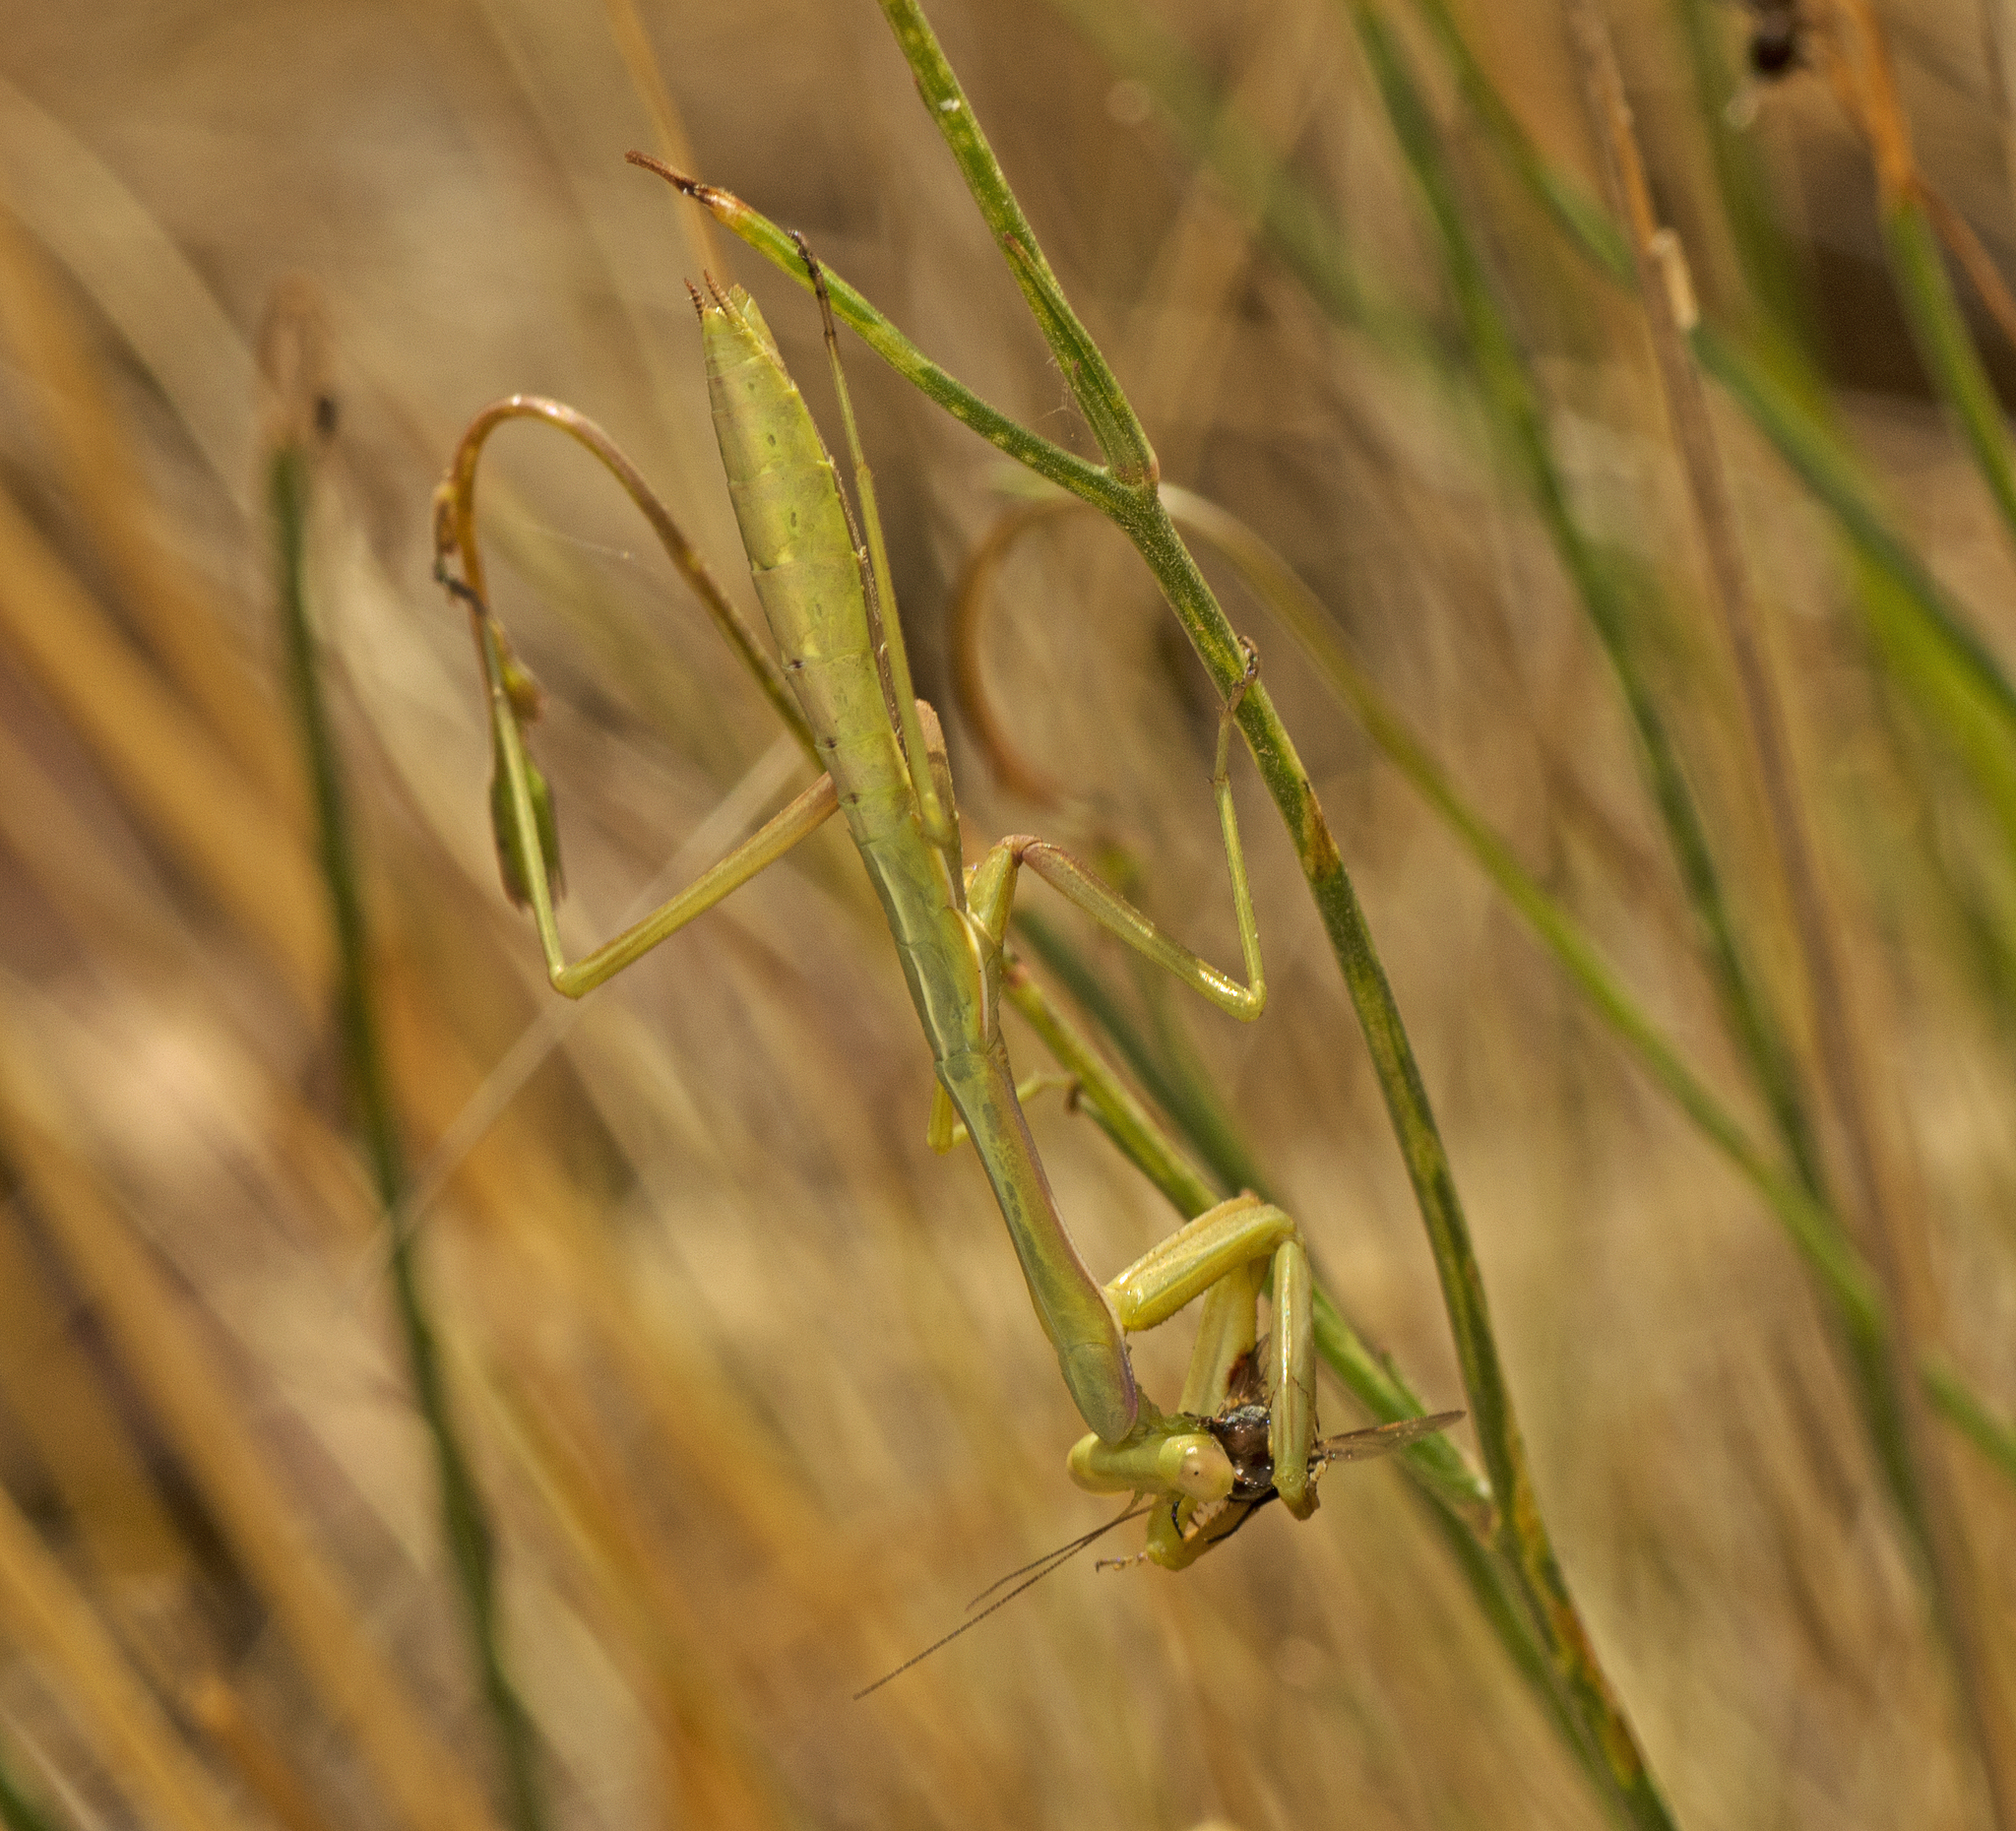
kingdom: Animalia
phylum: Arthropoda
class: Insecta
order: Mantodea
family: Mantidae
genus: Pseudomantis
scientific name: Pseudomantis albofimbriata
